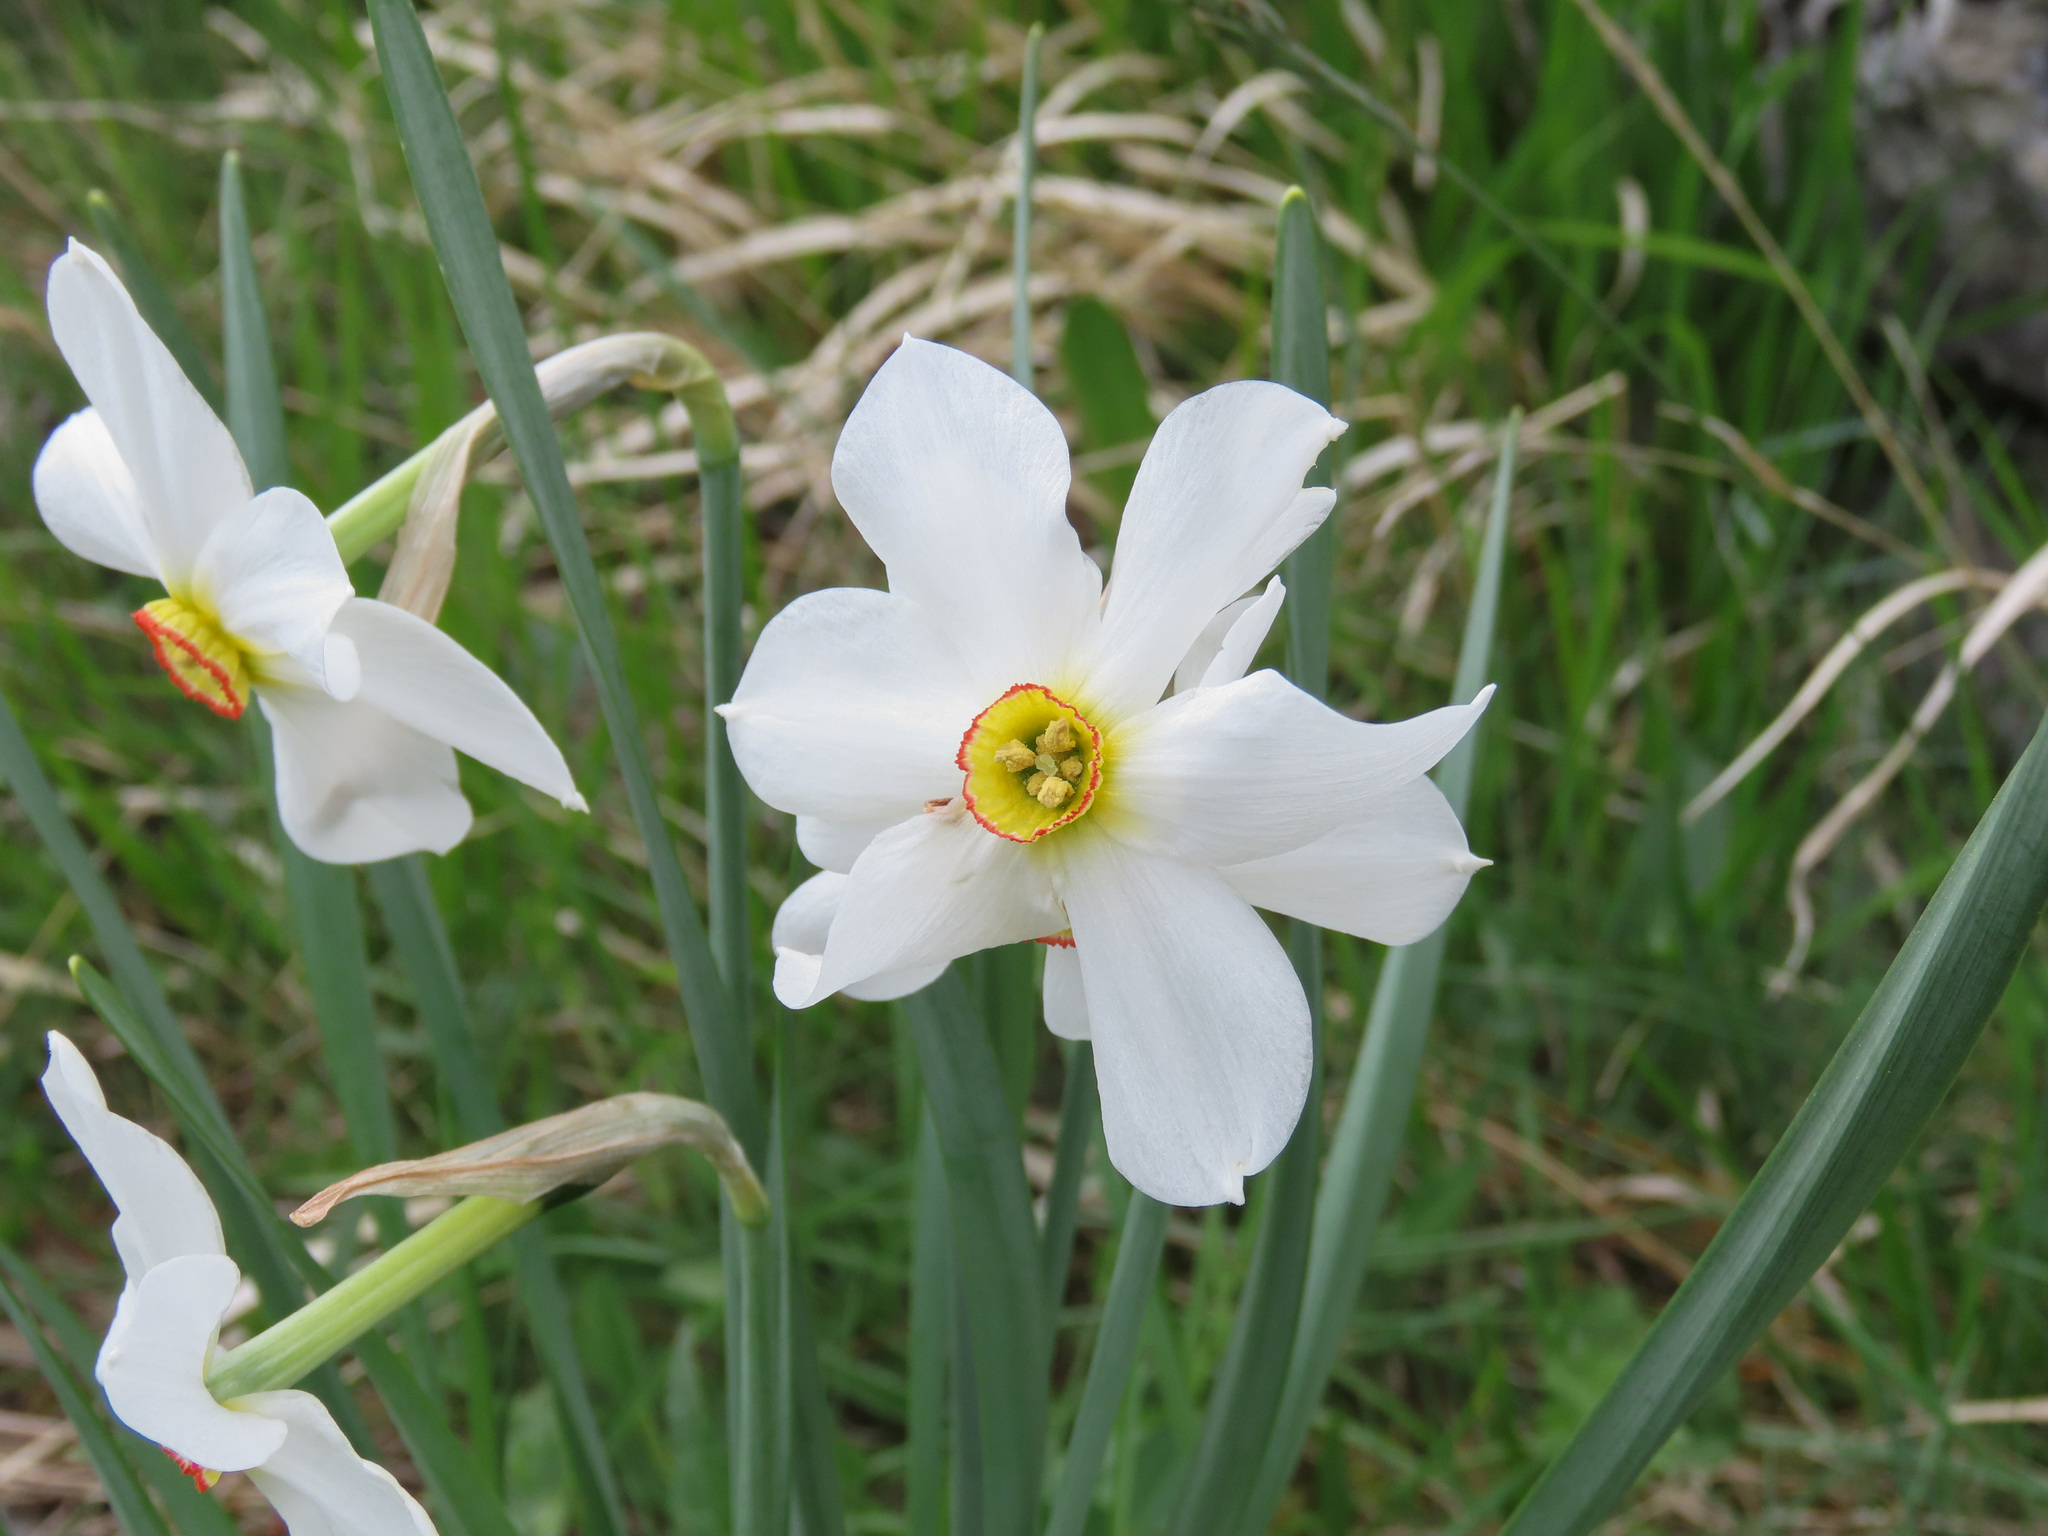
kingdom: Plantae
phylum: Tracheophyta
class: Liliopsida
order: Asparagales
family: Amaryllidaceae
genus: Narcissus
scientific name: Narcissus poeticus
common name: Pheasant's-eye daffodil
